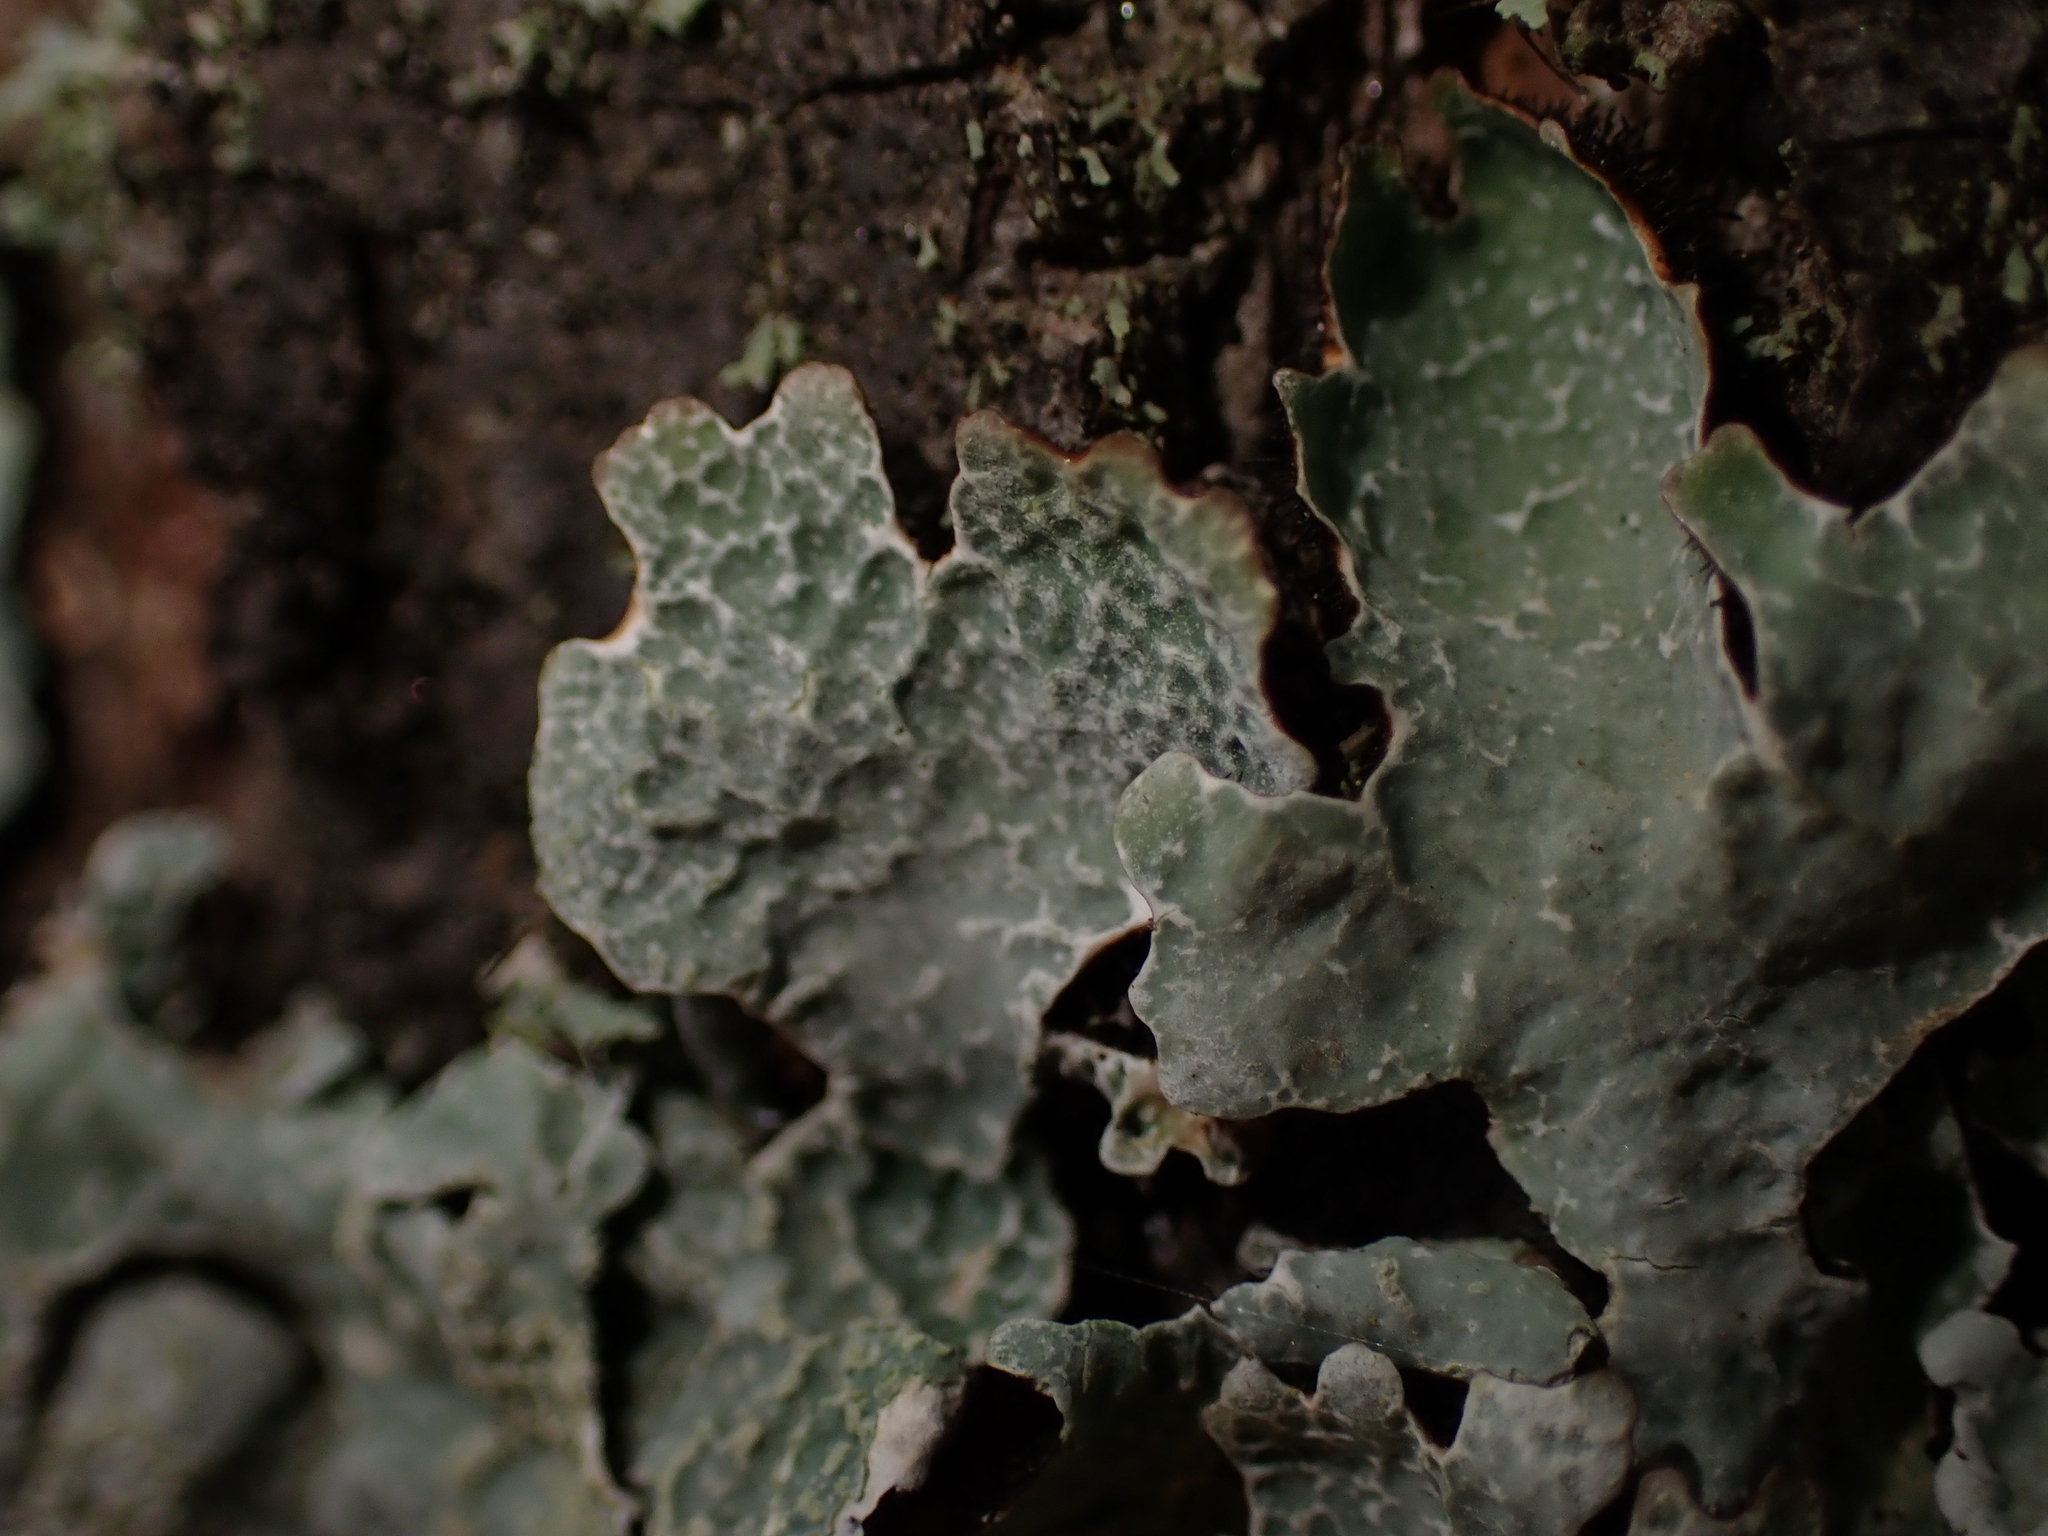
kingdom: Fungi
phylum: Ascomycota
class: Lecanoromycetes
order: Lecanorales
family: Parmeliaceae
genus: Parmelia
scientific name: Parmelia sulcata
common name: Netted shield lichen
